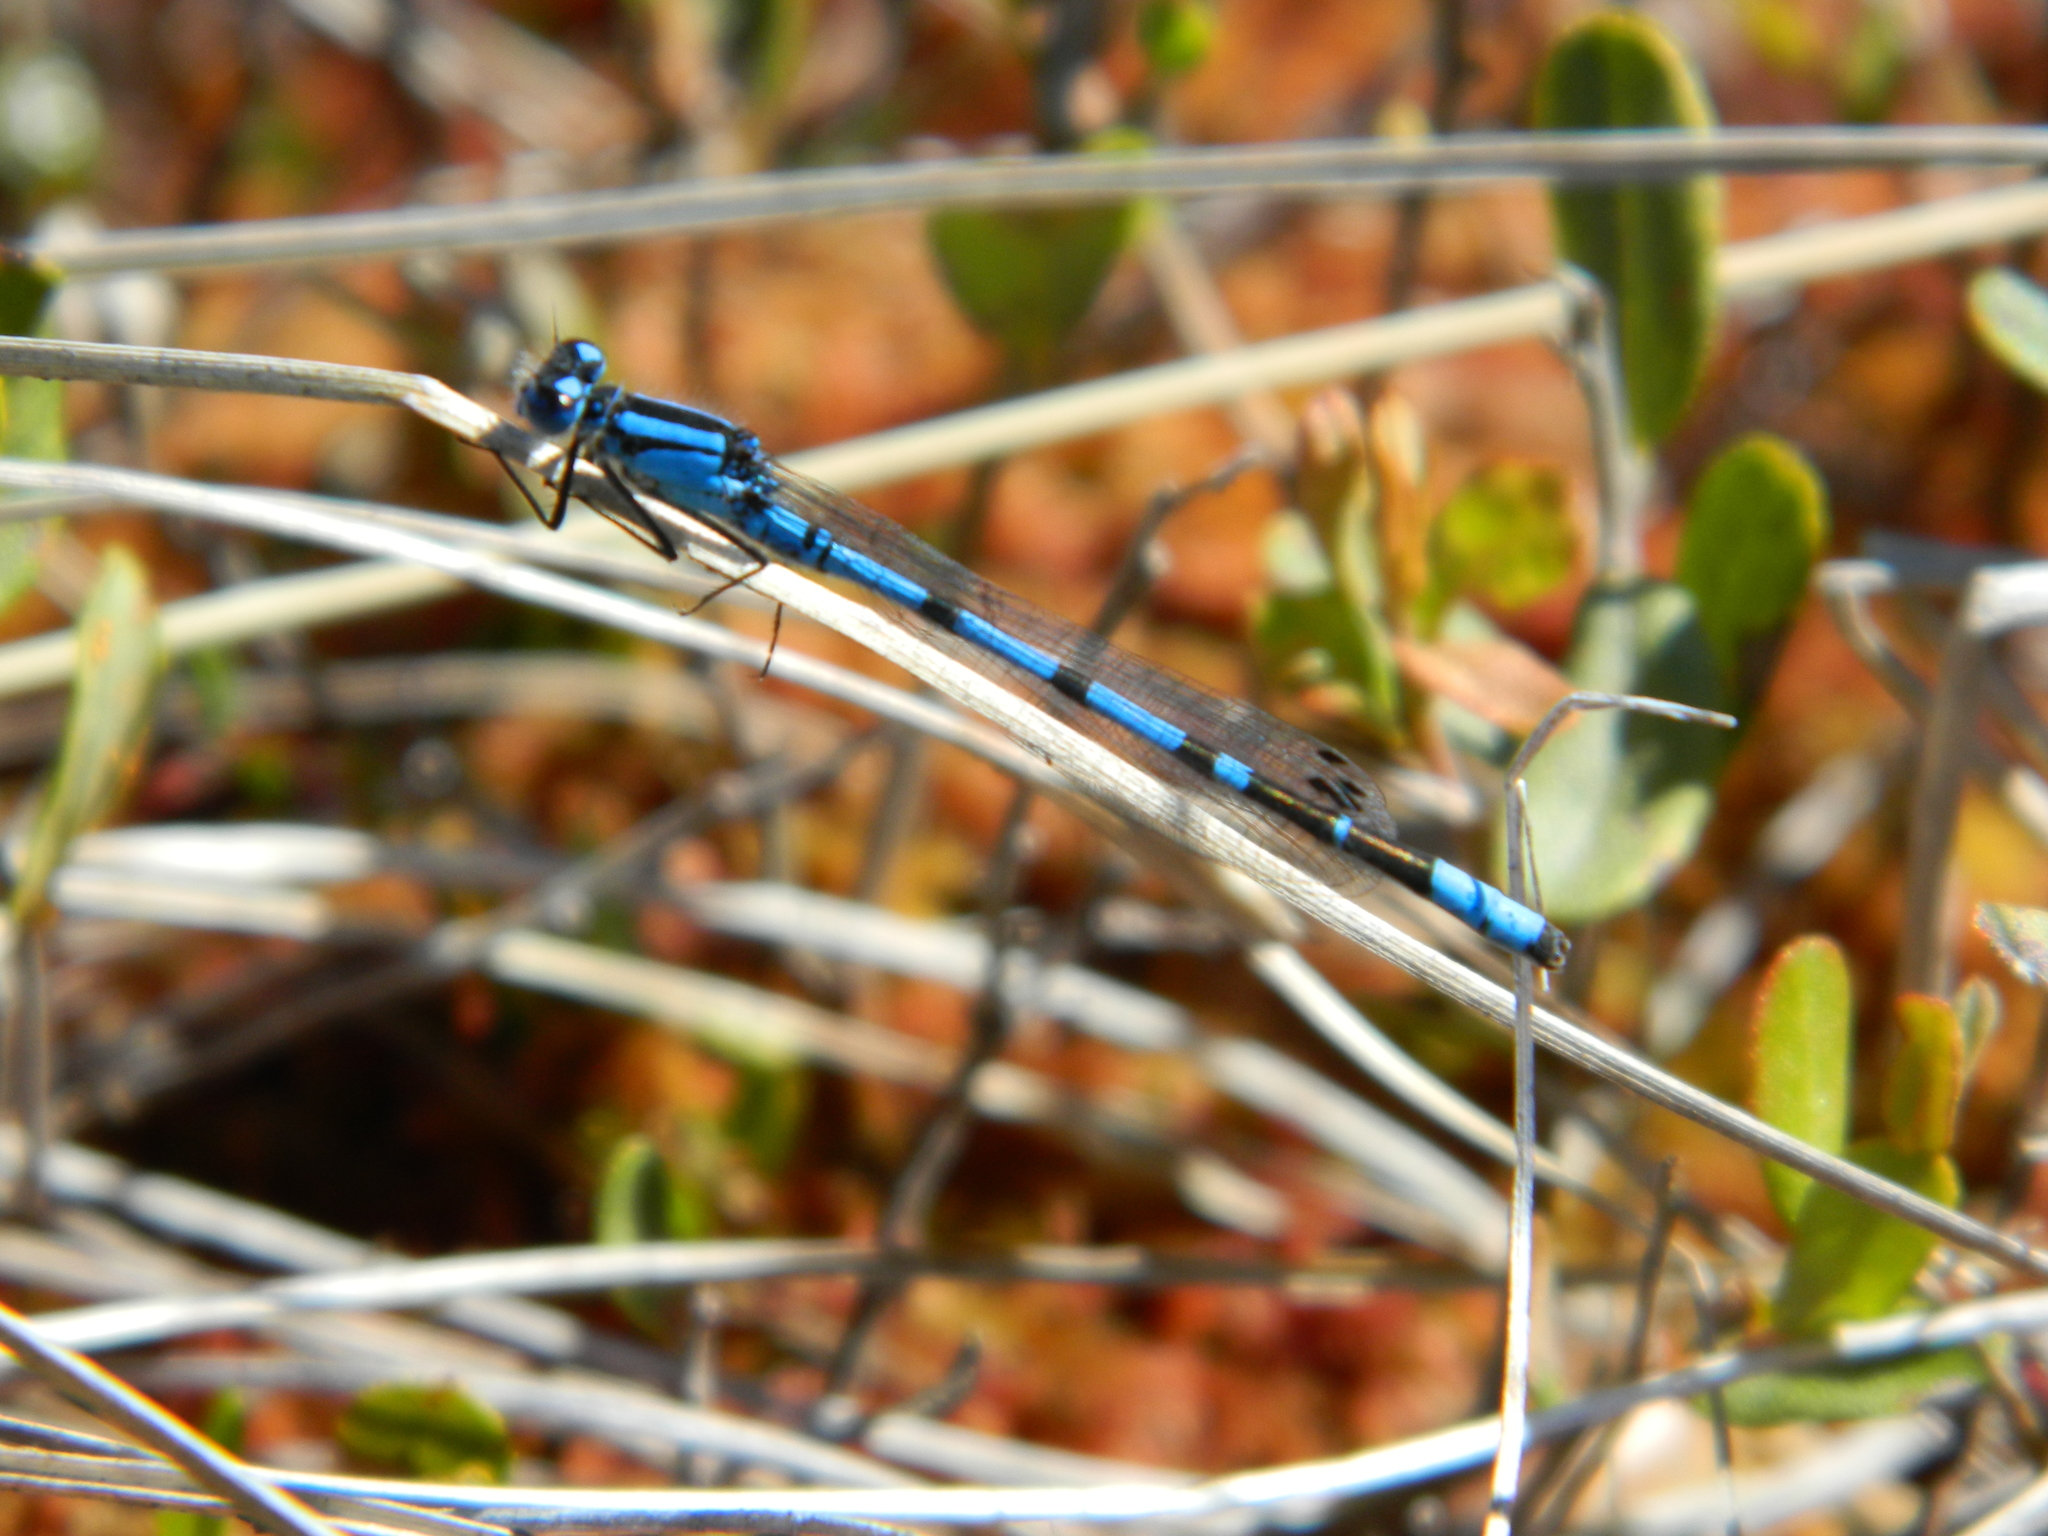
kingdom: Animalia
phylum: Arthropoda
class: Insecta
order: Odonata
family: Coenagrionidae
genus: Enallagma
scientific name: Enallagma
